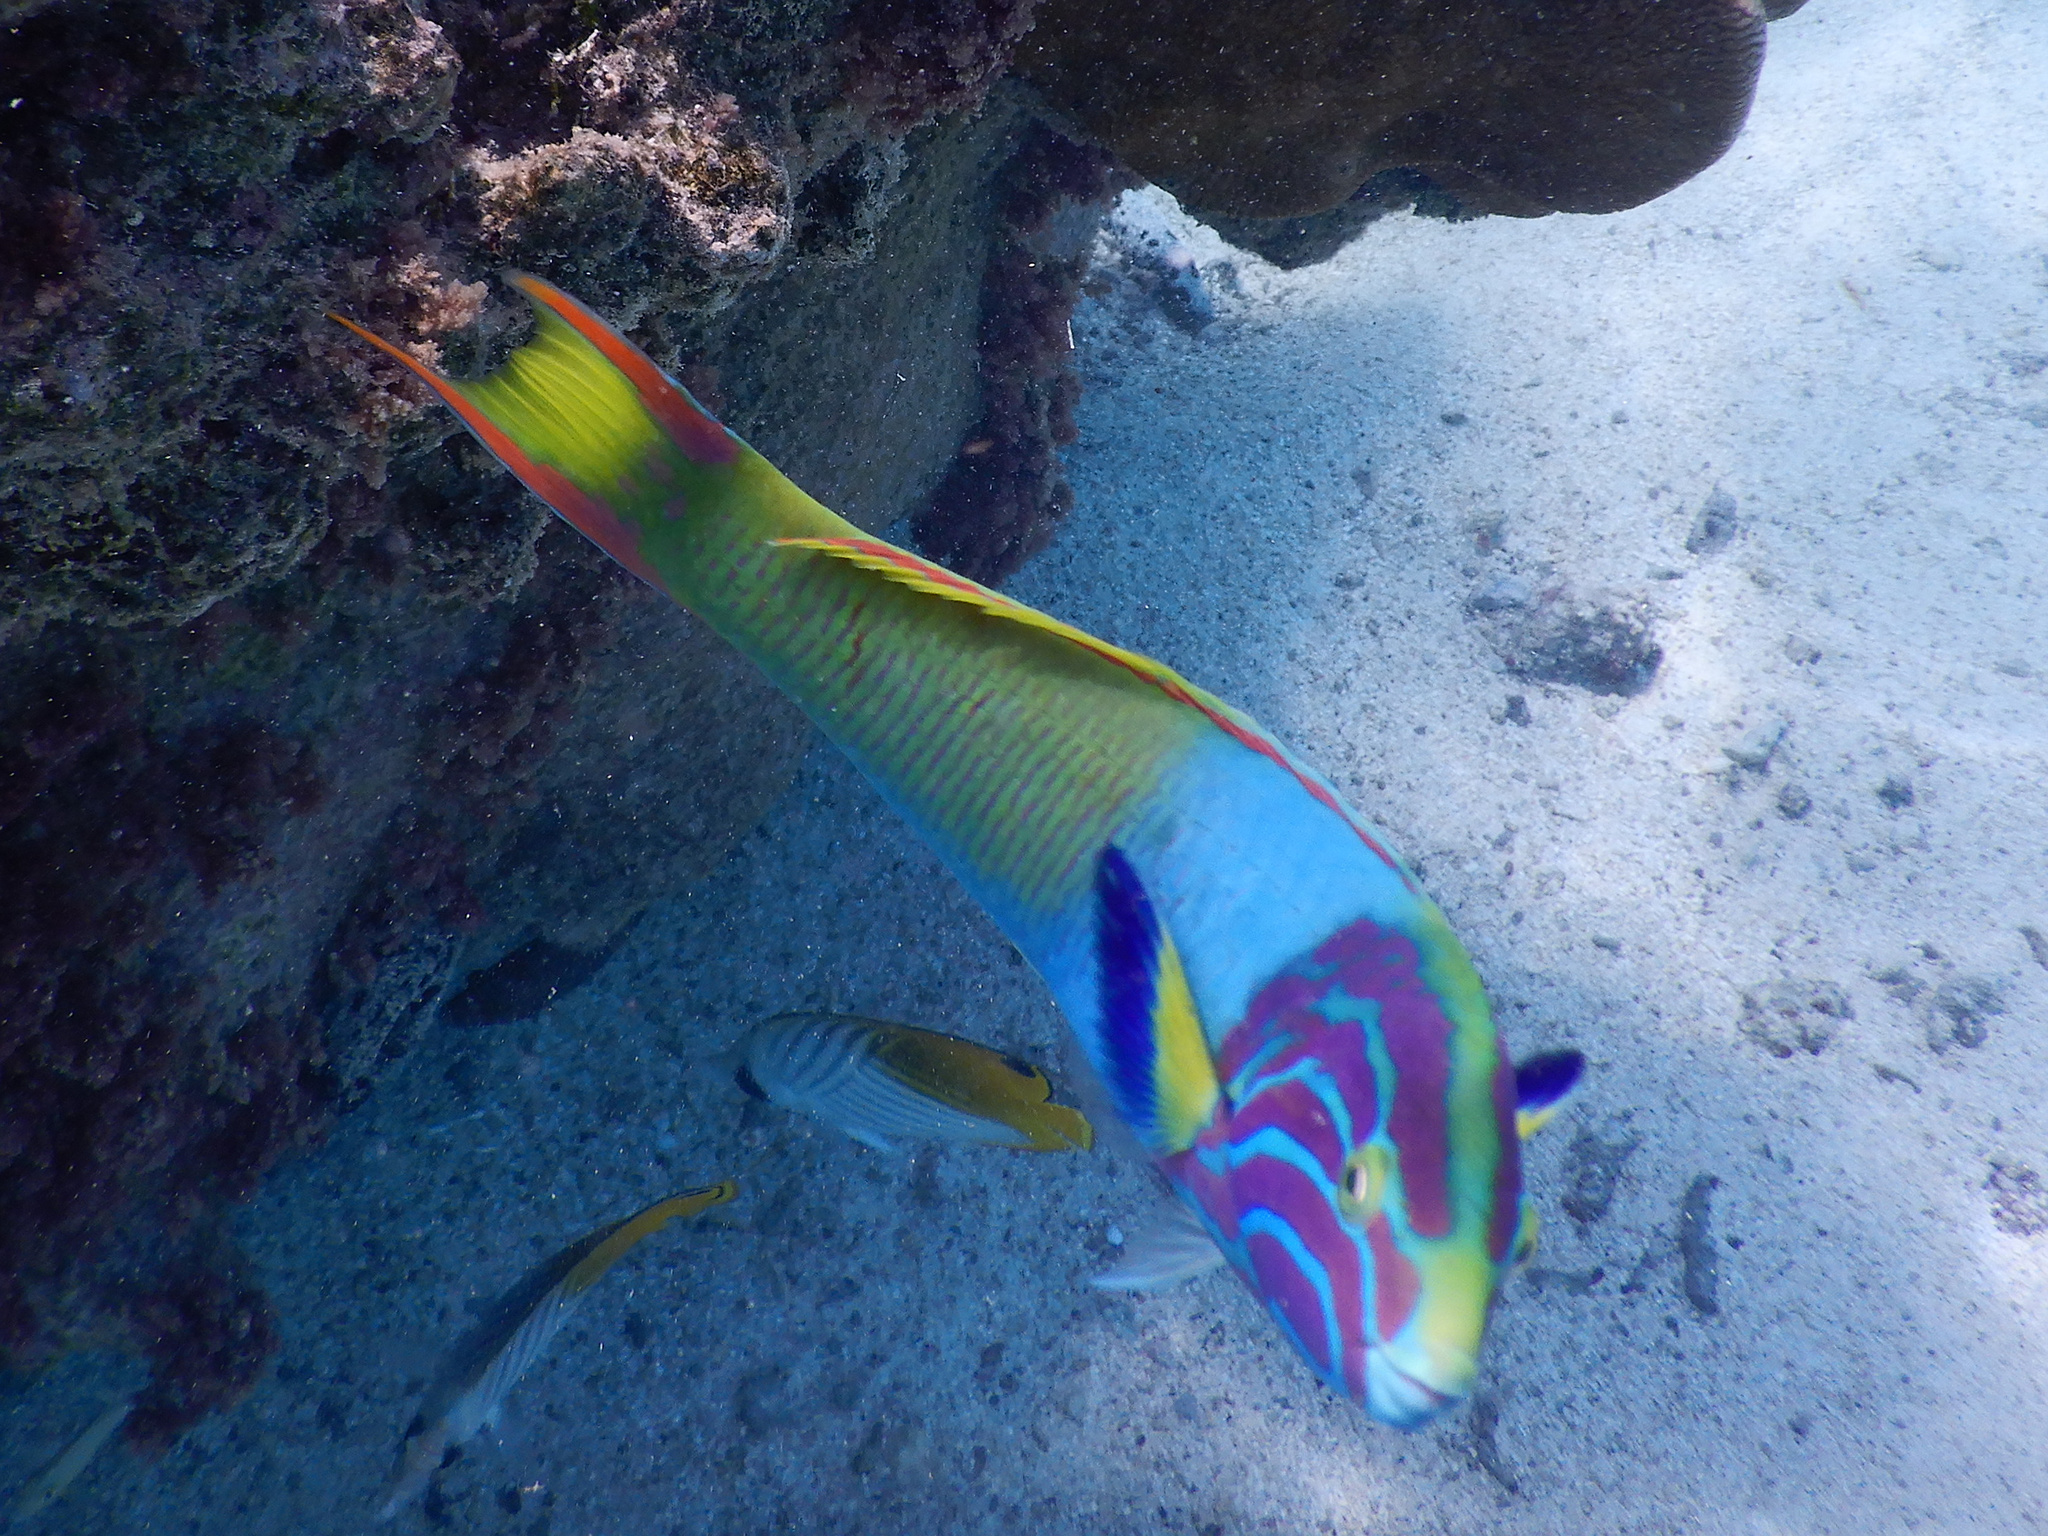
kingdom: Animalia
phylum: Chordata
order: Perciformes
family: Labridae
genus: Thalassoma
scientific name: Thalassoma lutescens
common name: Green moon wrasse
